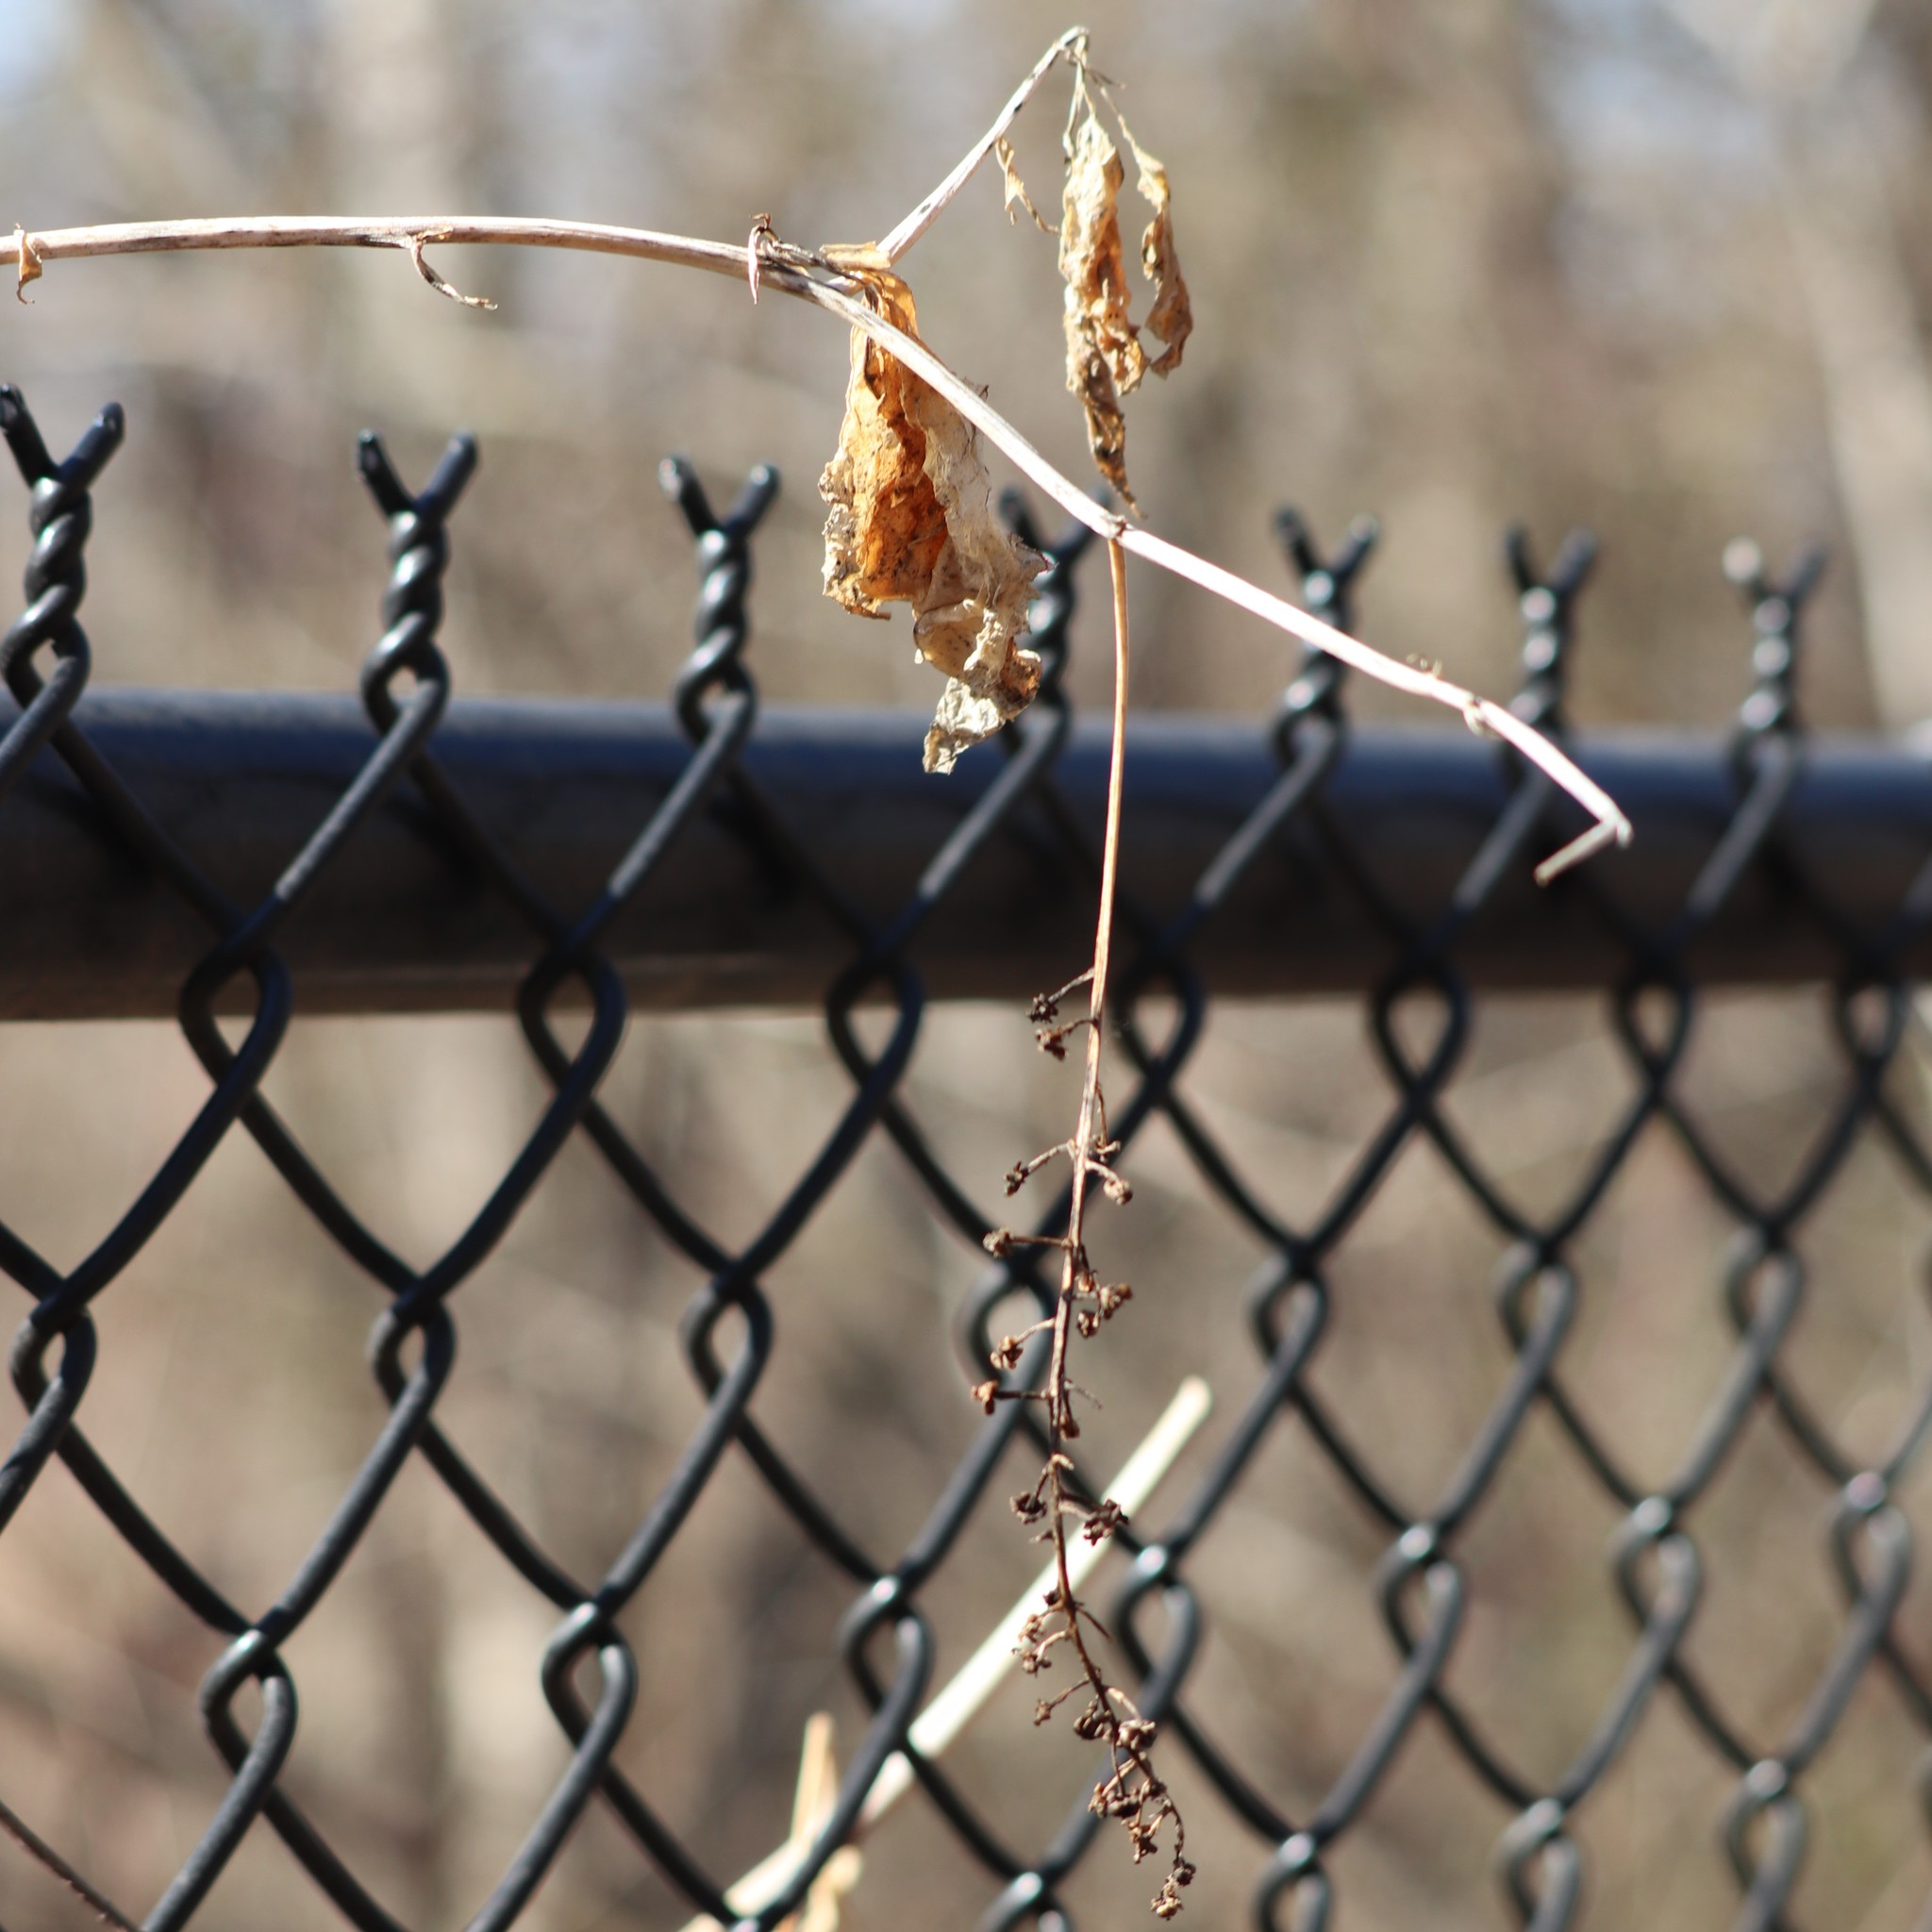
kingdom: Plantae
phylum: Tracheophyta
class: Magnoliopsida
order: Caryophyllales
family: Phytolaccaceae
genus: Phytolacca
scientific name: Phytolacca americana
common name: American pokeweed
